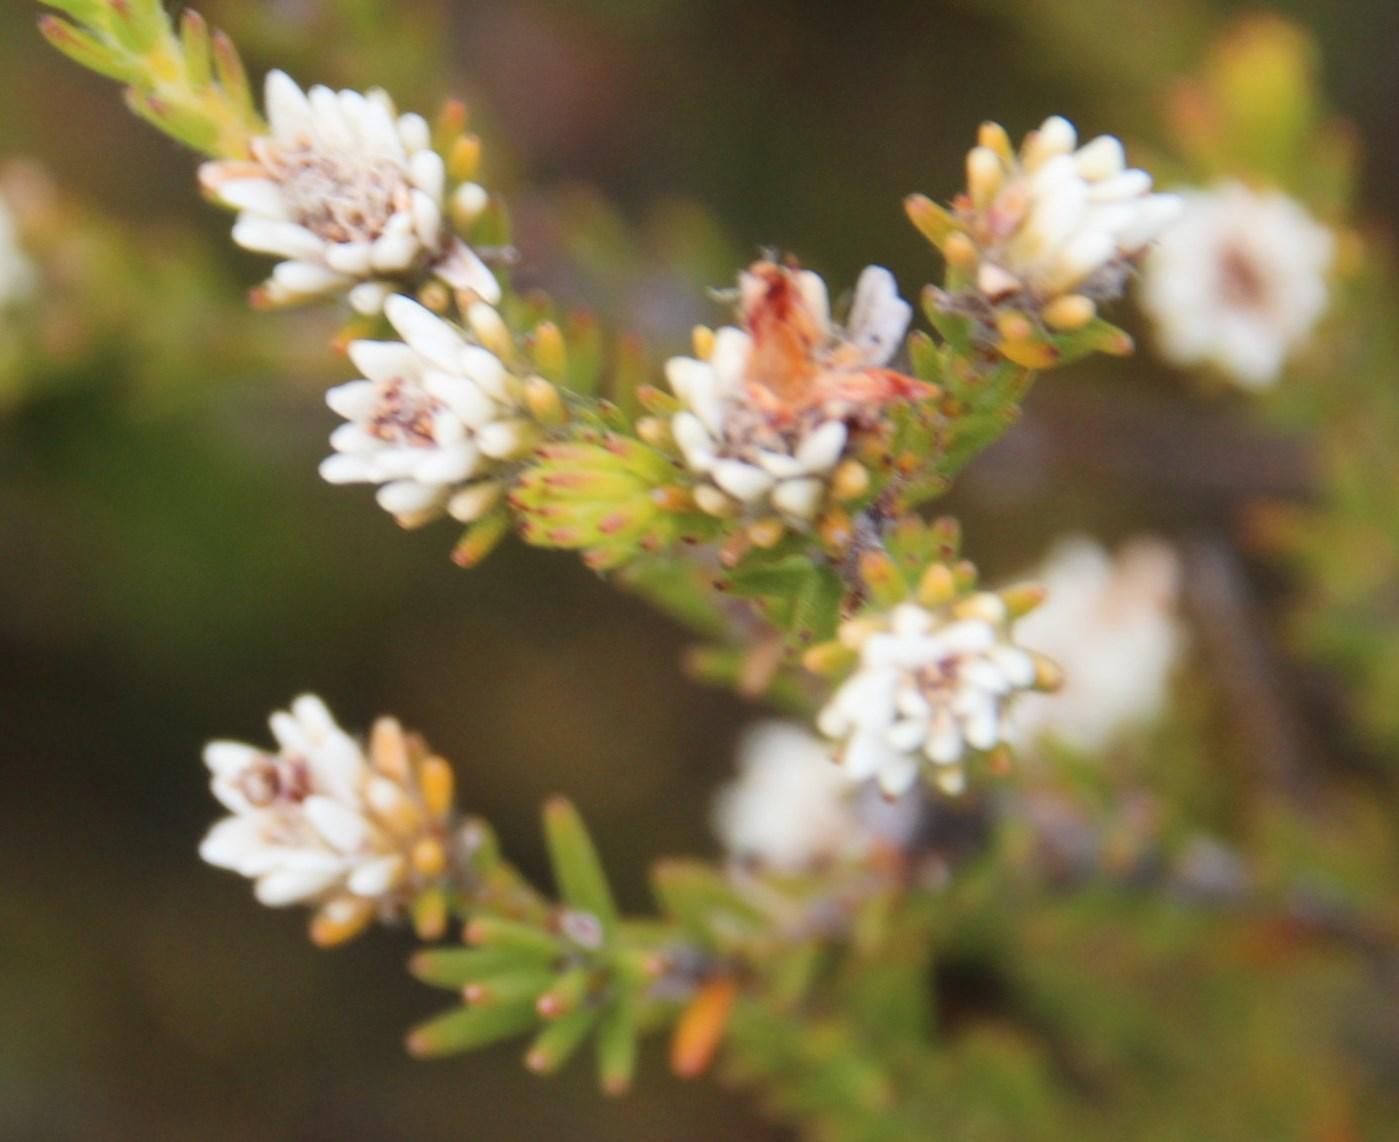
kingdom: Plantae
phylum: Tracheophyta
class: Magnoliopsida
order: Bruniales
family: Bruniaceae
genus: Staavia
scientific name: Staavia radiata
